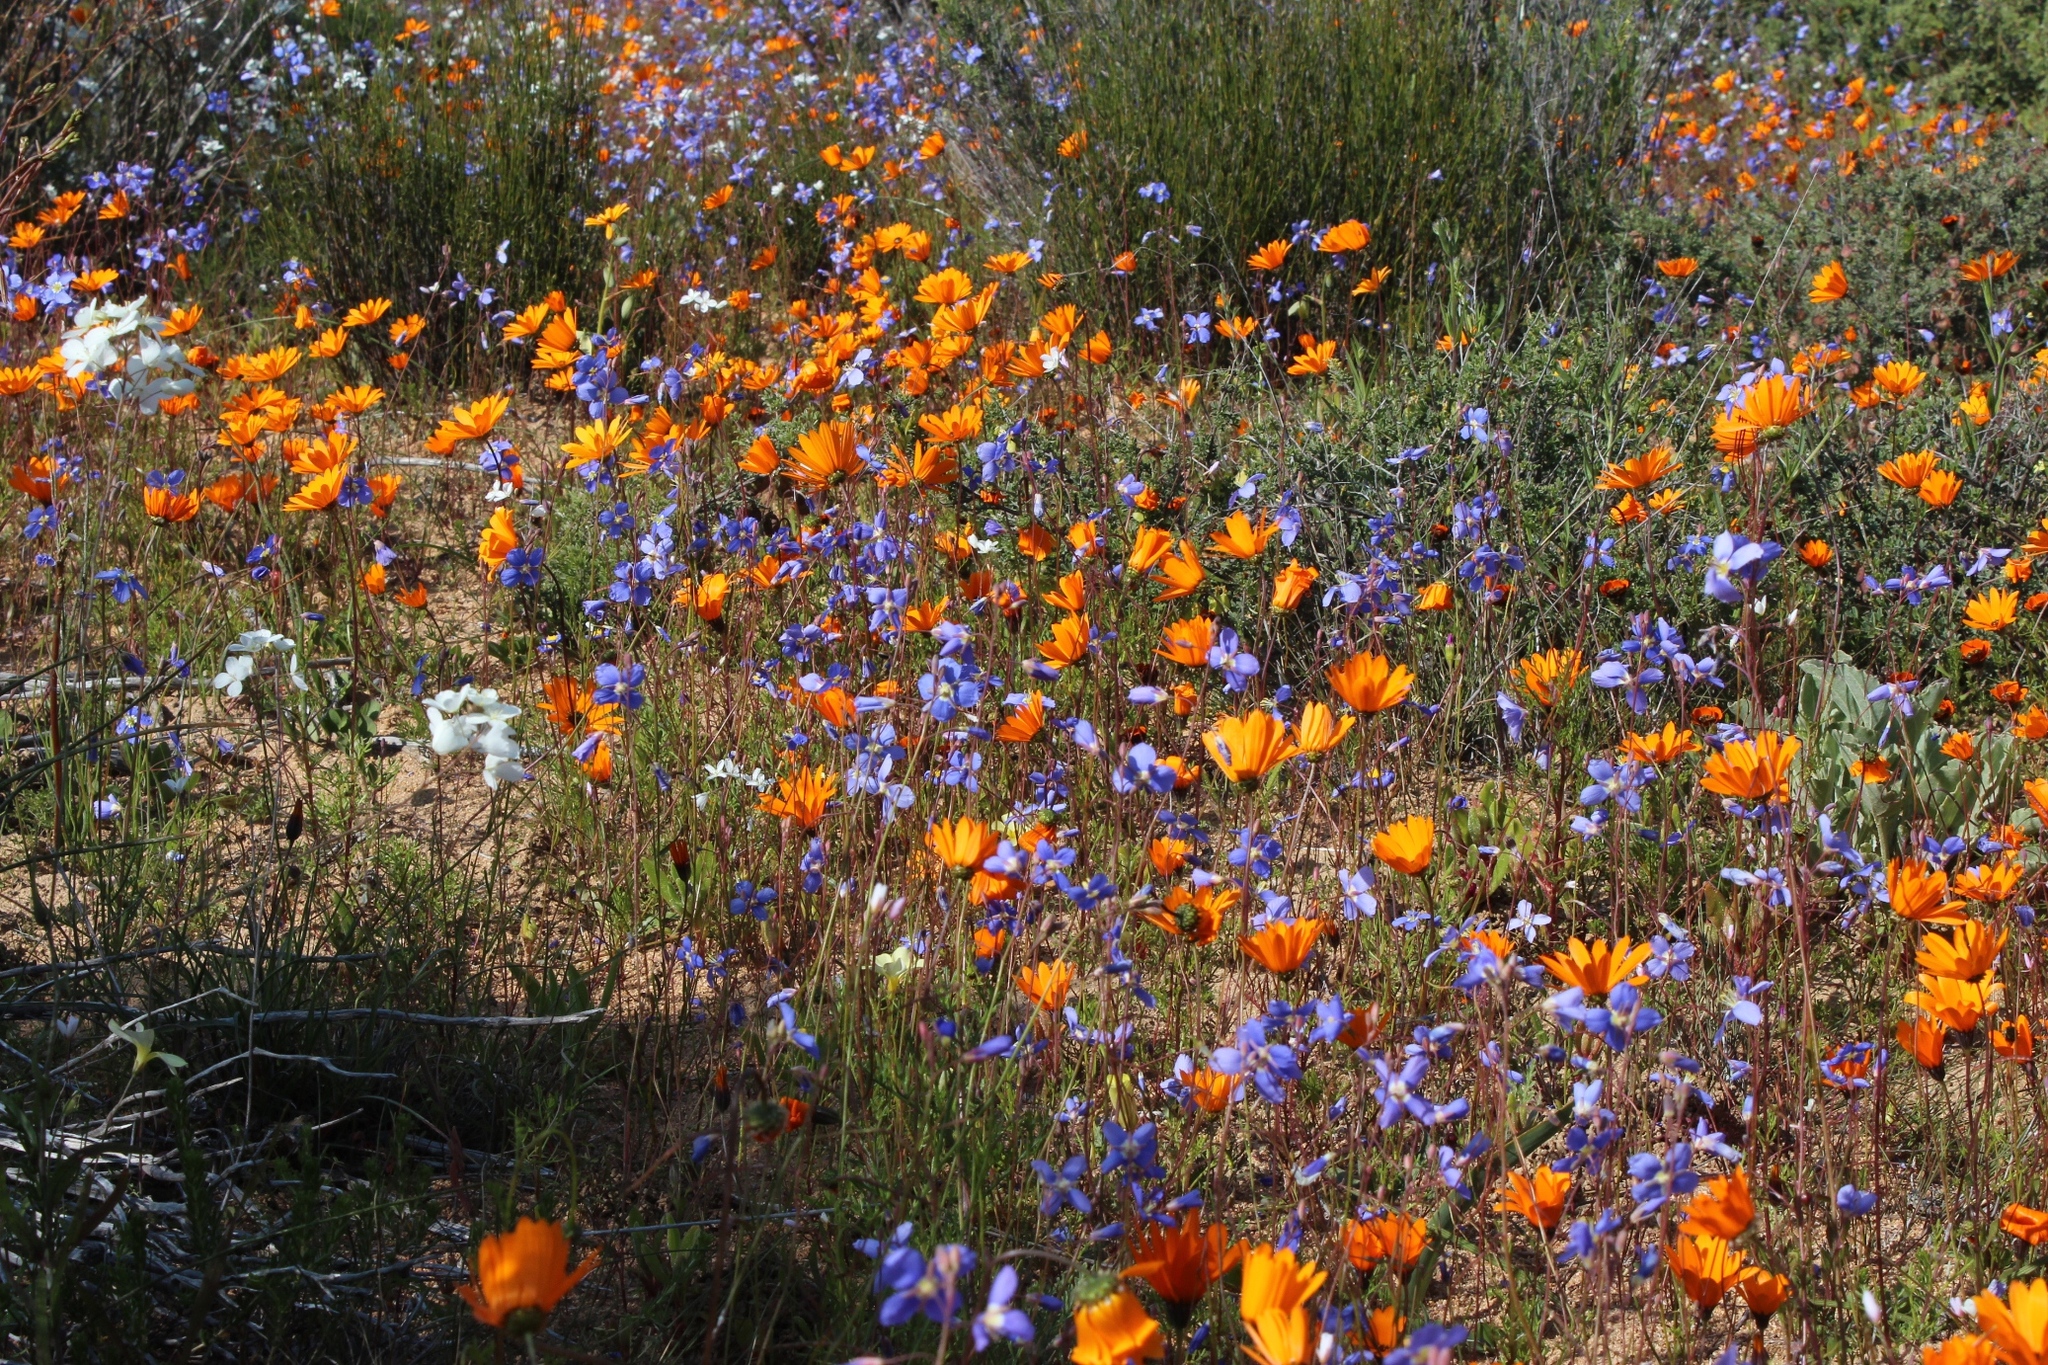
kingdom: Plantae
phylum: Tracheophyta
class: Magnoliopsida
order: Brassicales
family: Brassicaceae
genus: Heliophila
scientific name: Heliophila schulzii
